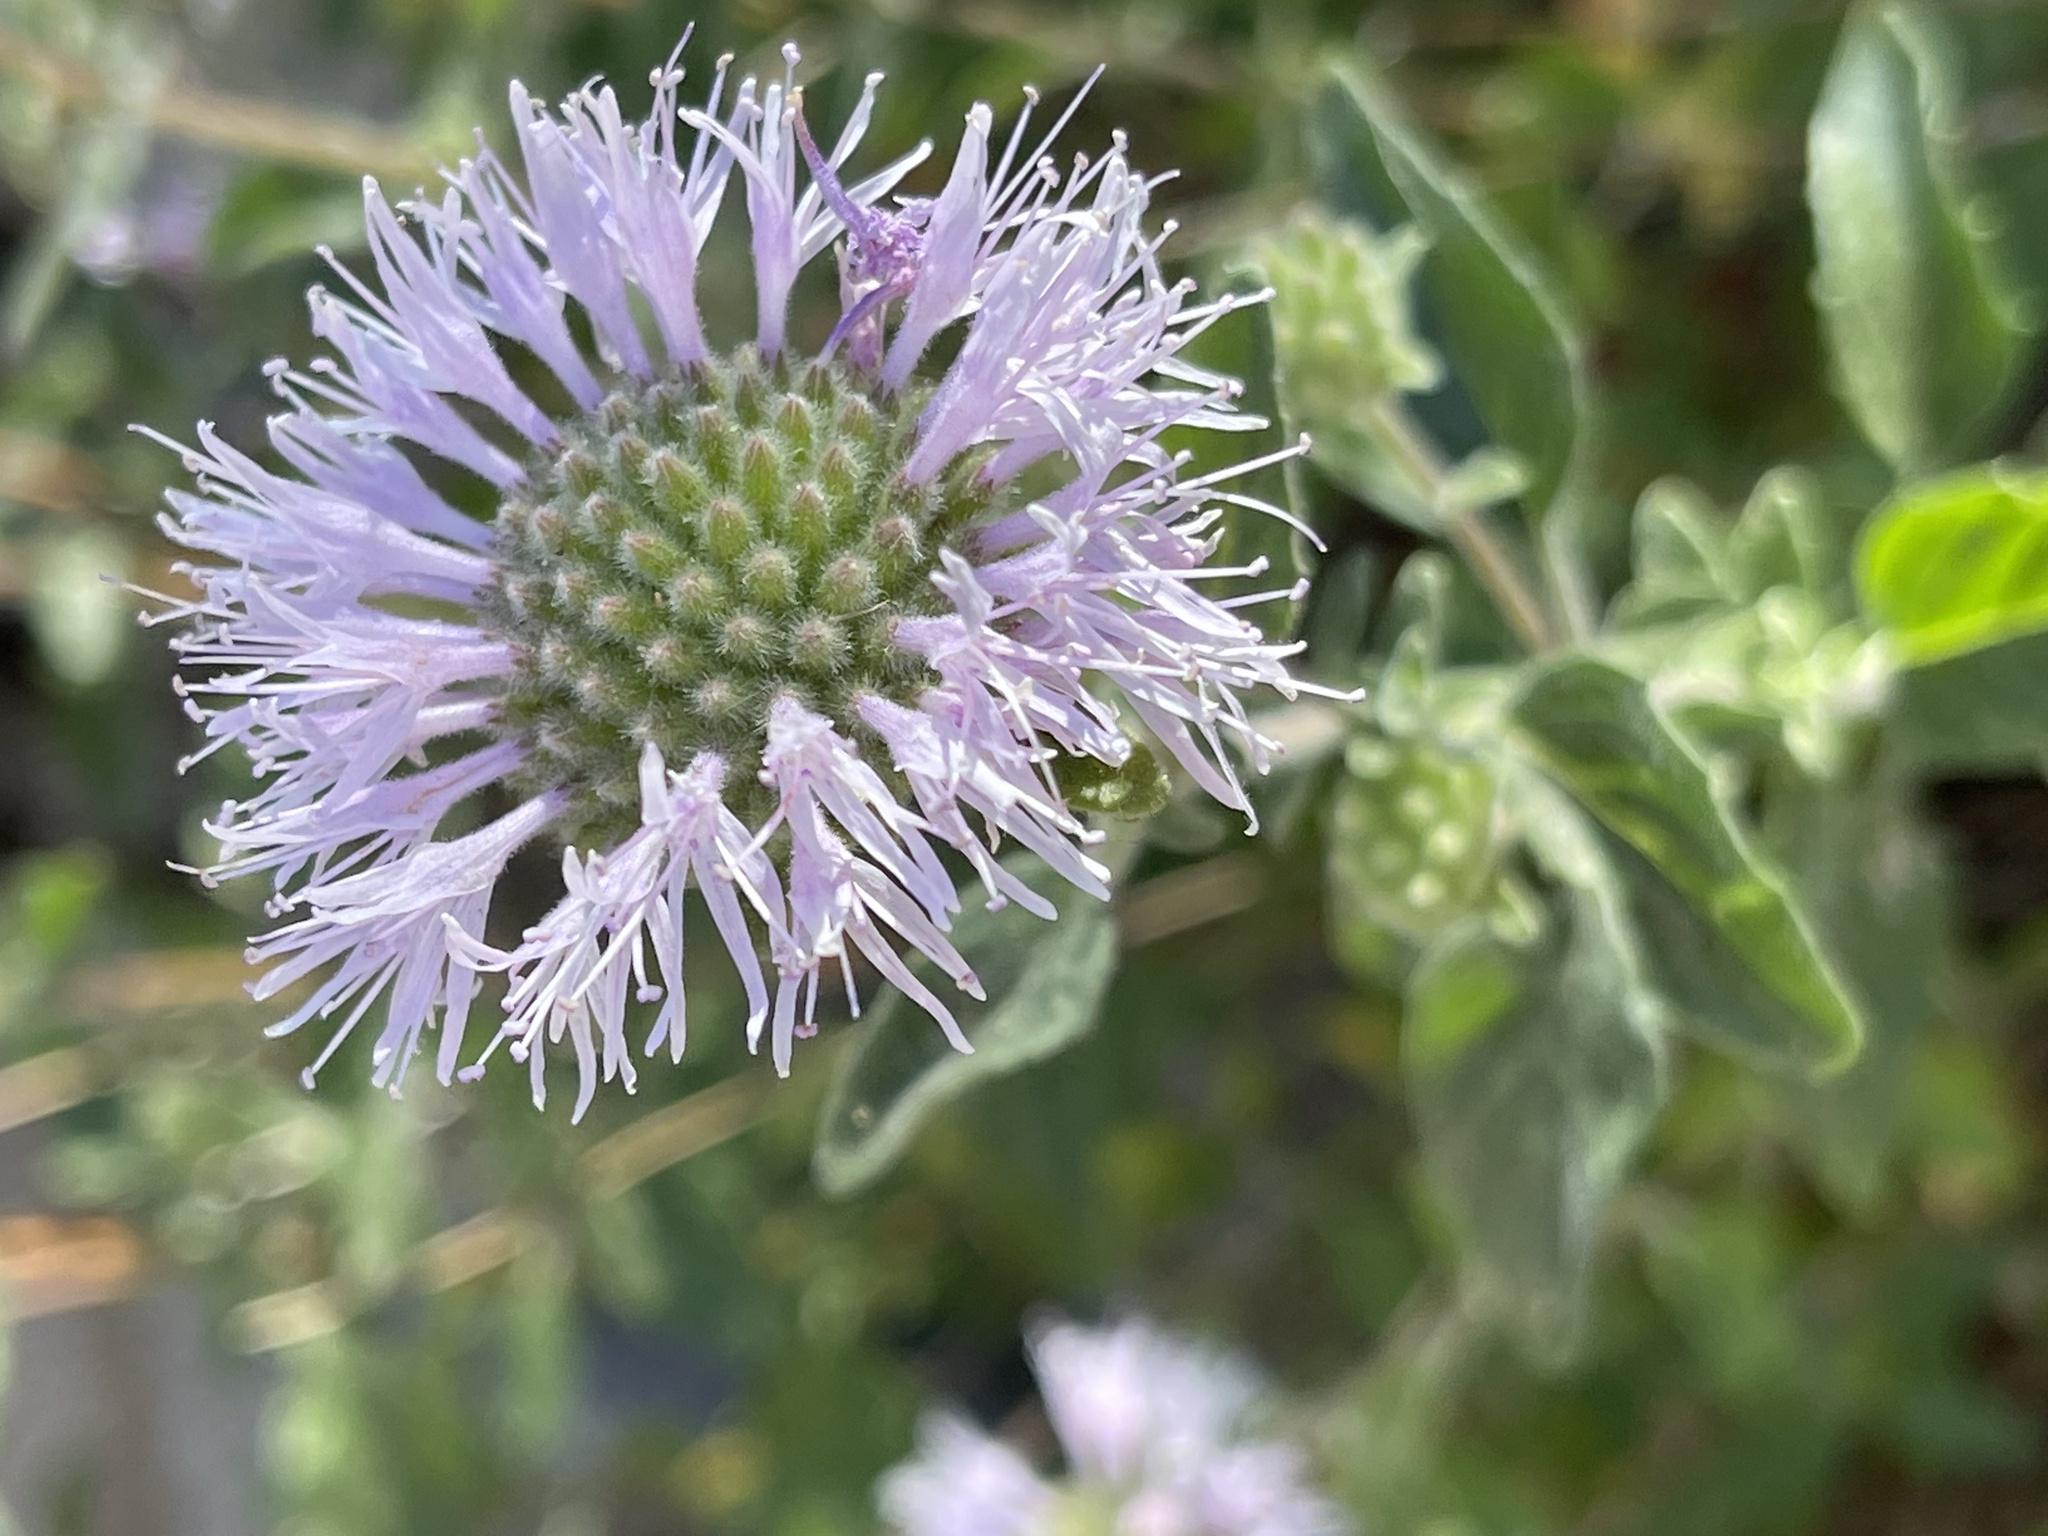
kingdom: Plantae
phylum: Tracheophyta
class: Magnoliopsida
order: Lamiales
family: Lamiaceae
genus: Monardella
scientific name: Monardella odoratissima
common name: Pacific monardella
